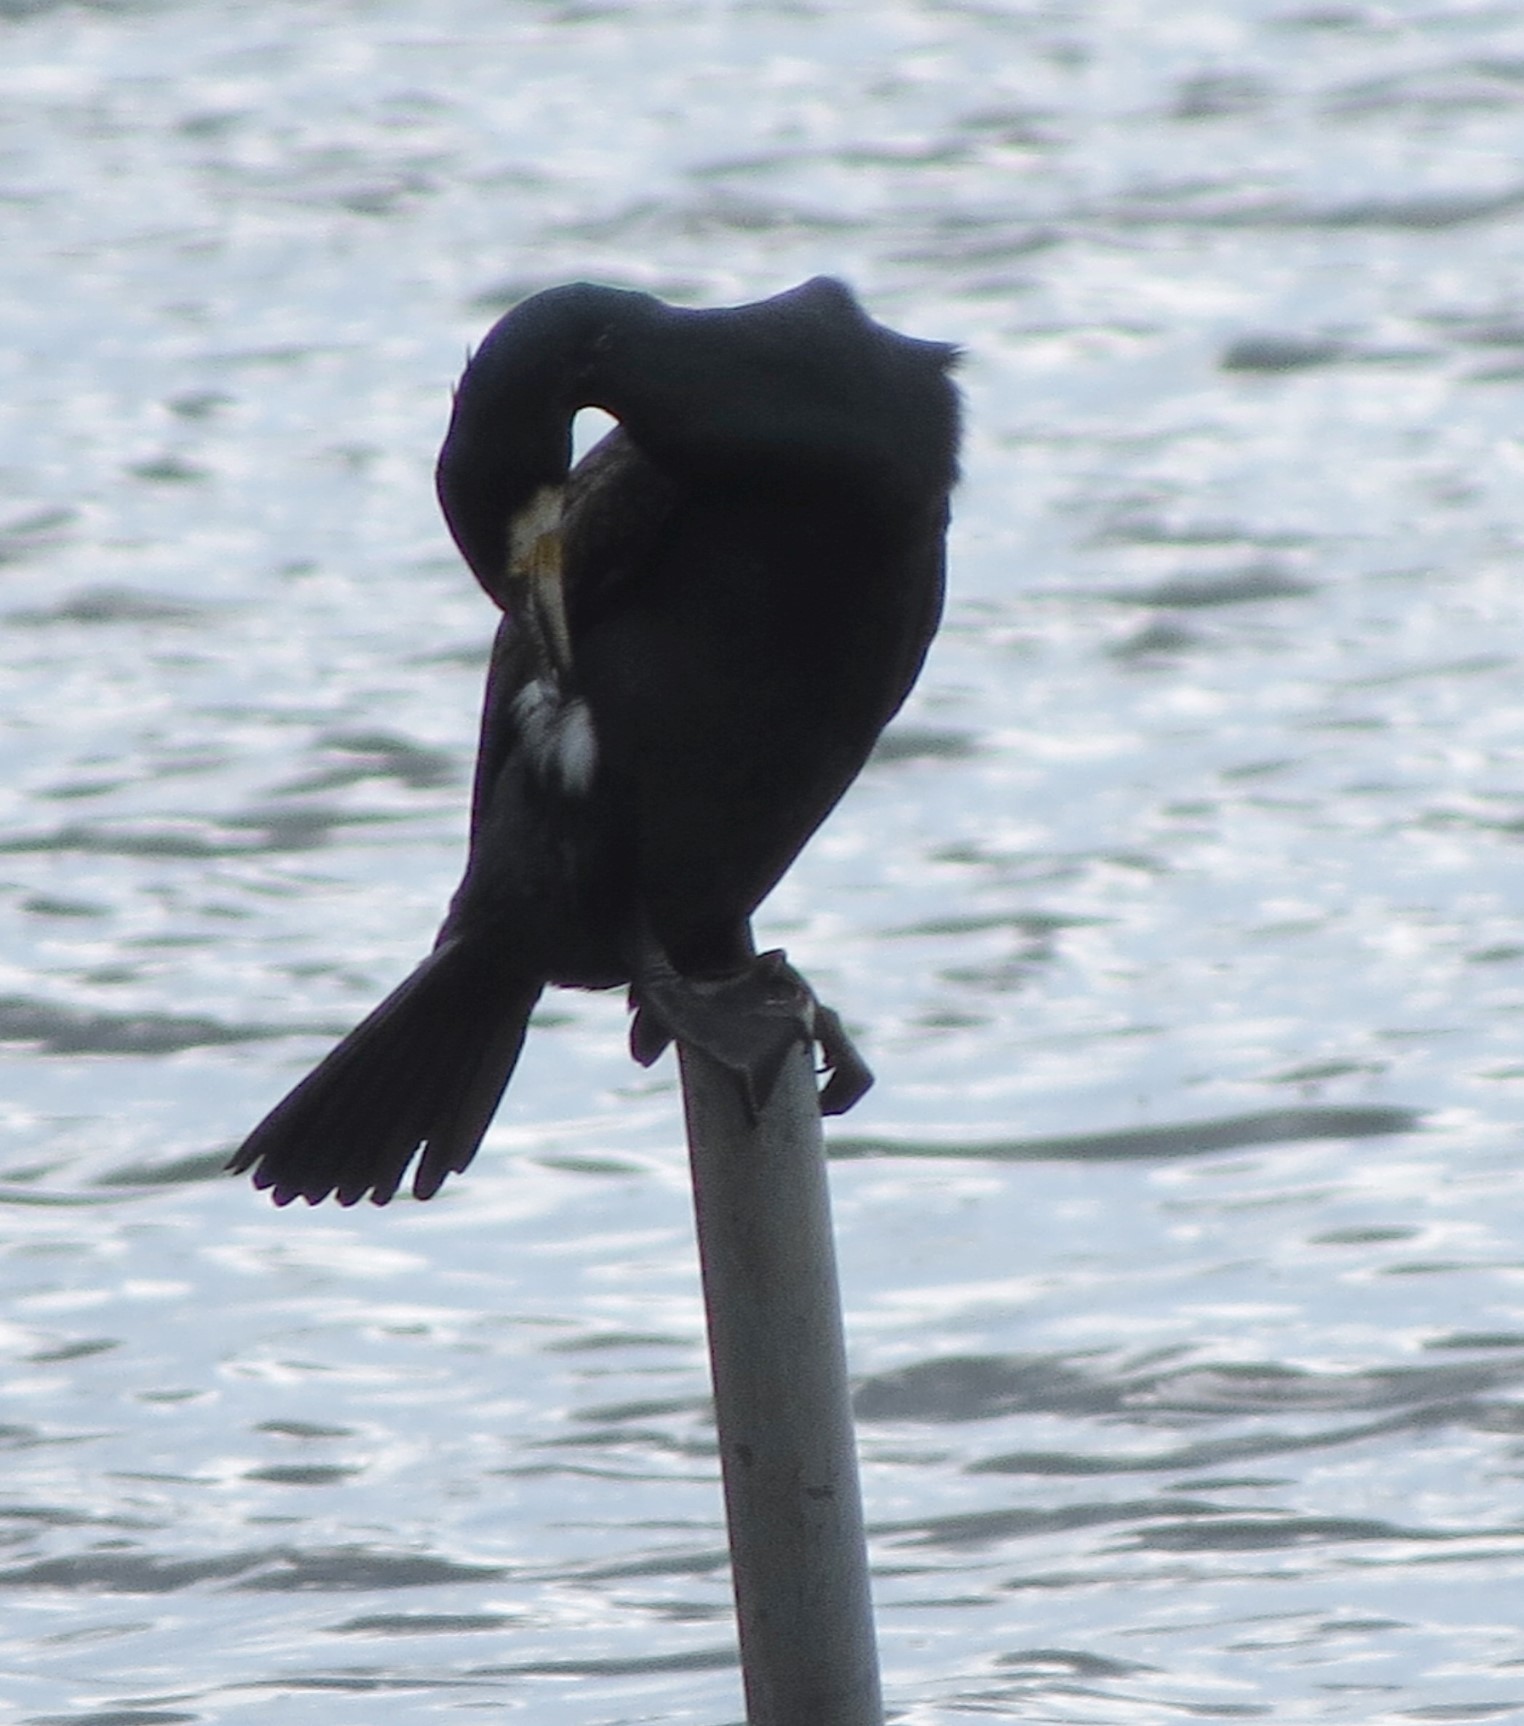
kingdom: Animalia
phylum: Chordata
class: Aves
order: Suliformes
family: Phalacrocoracidae
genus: Phalacrocorax
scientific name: Phalacrocorax carbo
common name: Great cormorant
